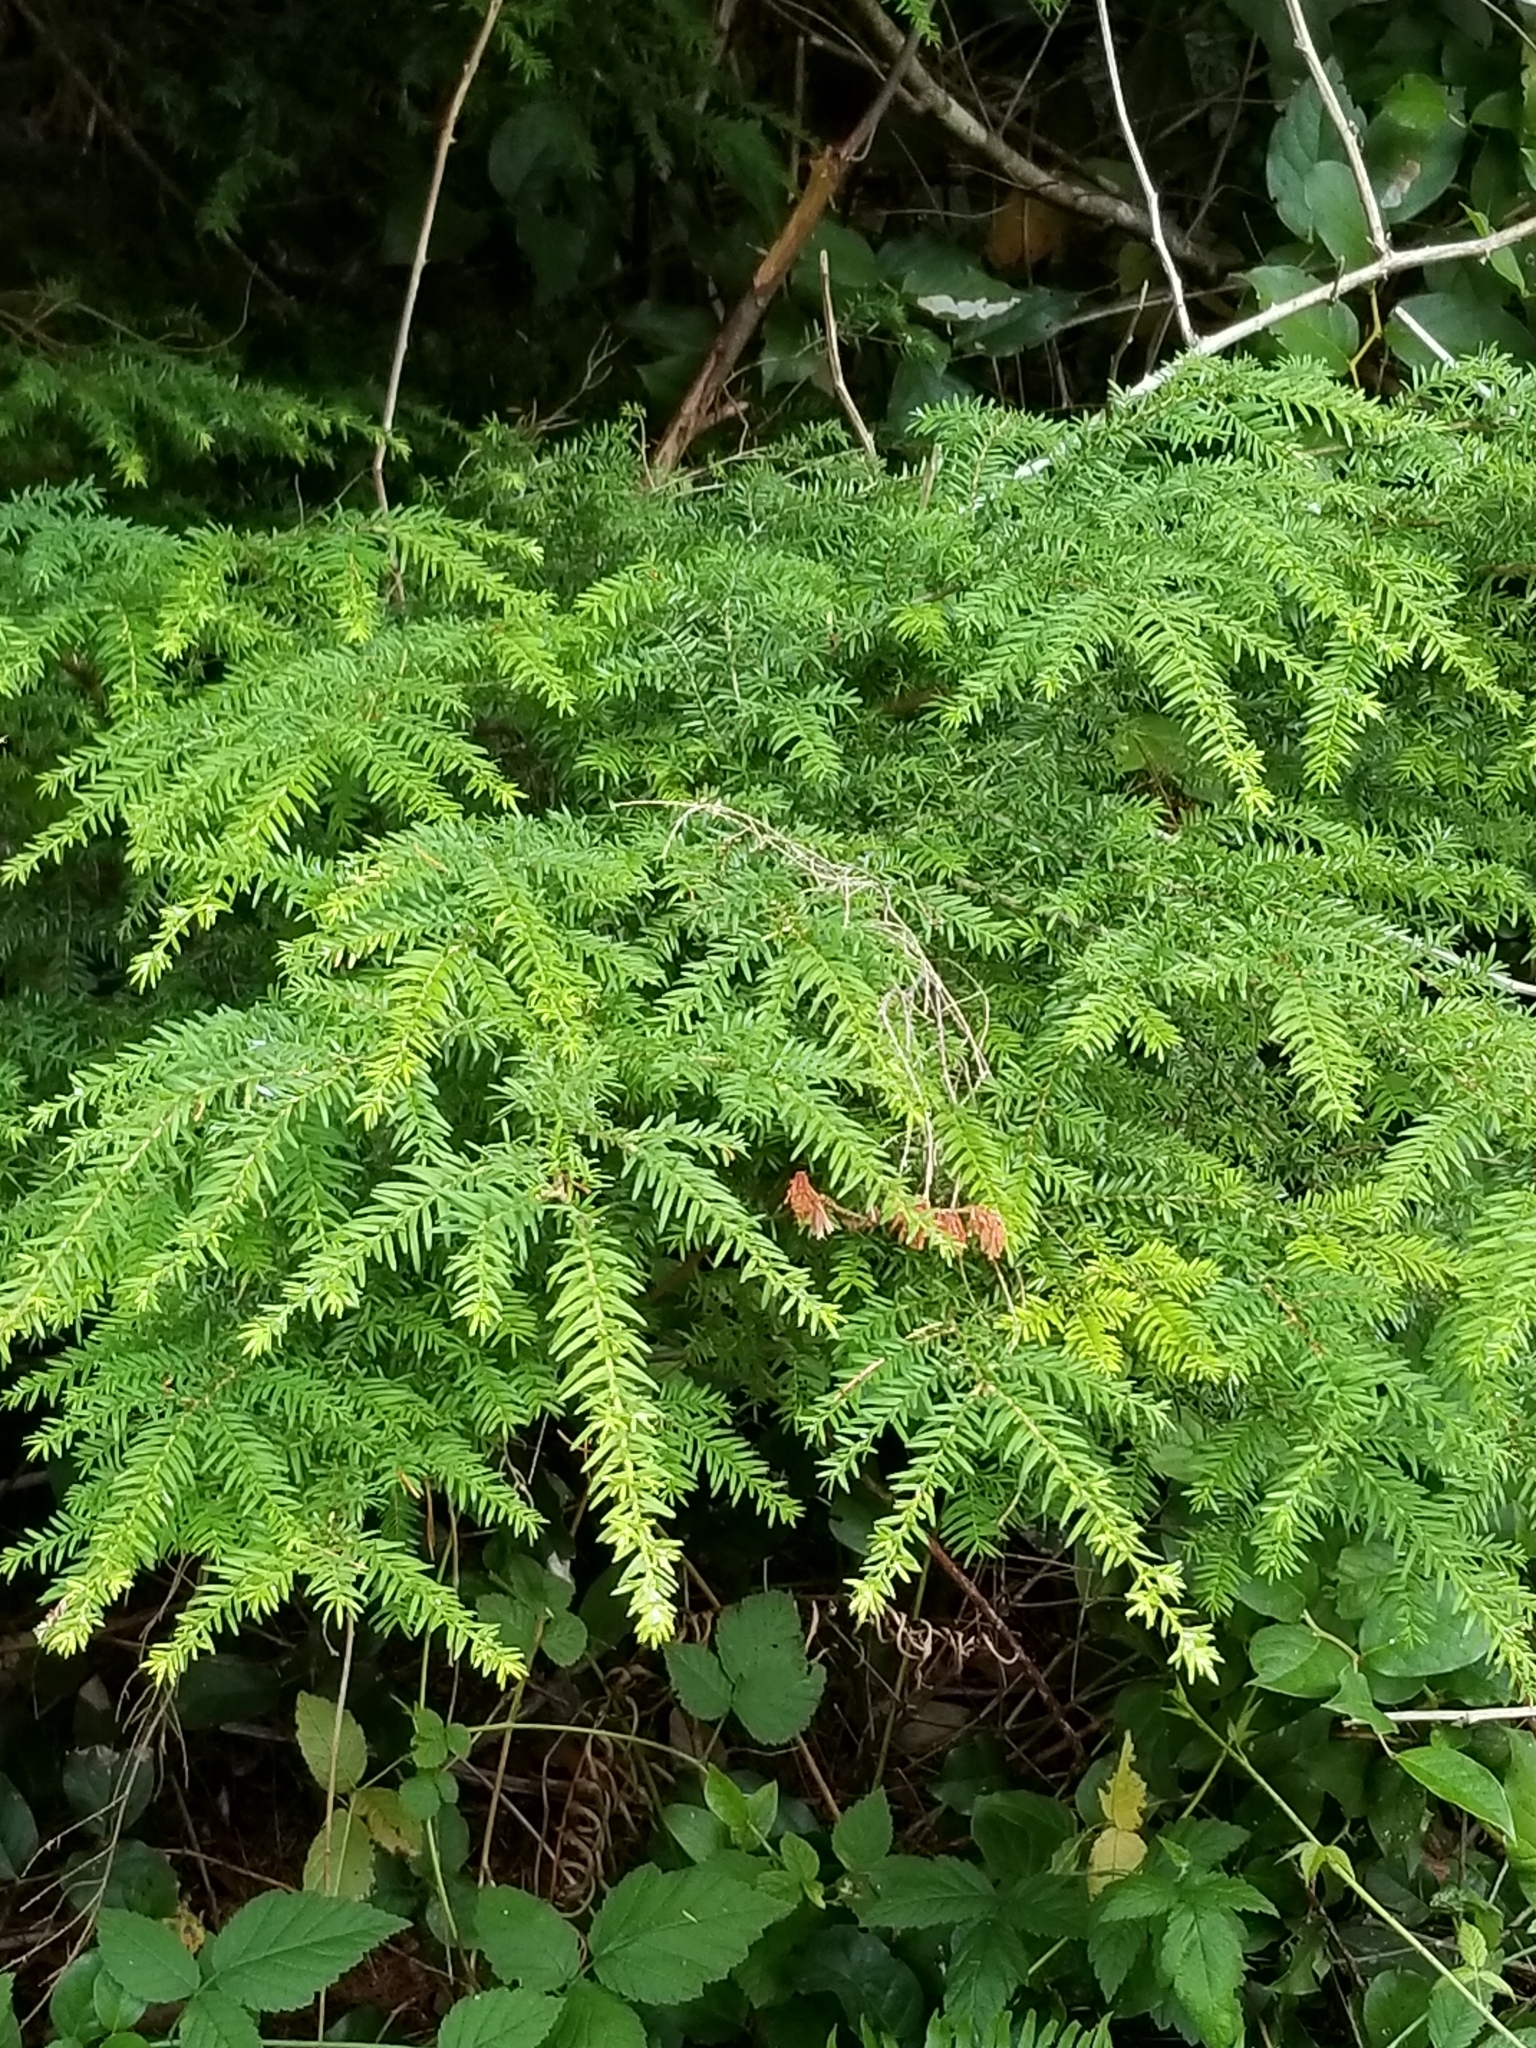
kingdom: Plantae
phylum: Tracheophyta
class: Pinopsida
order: Pinales
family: Pinaceae
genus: Tsuga
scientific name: Tsuga heterophylla
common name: Western hemlock
